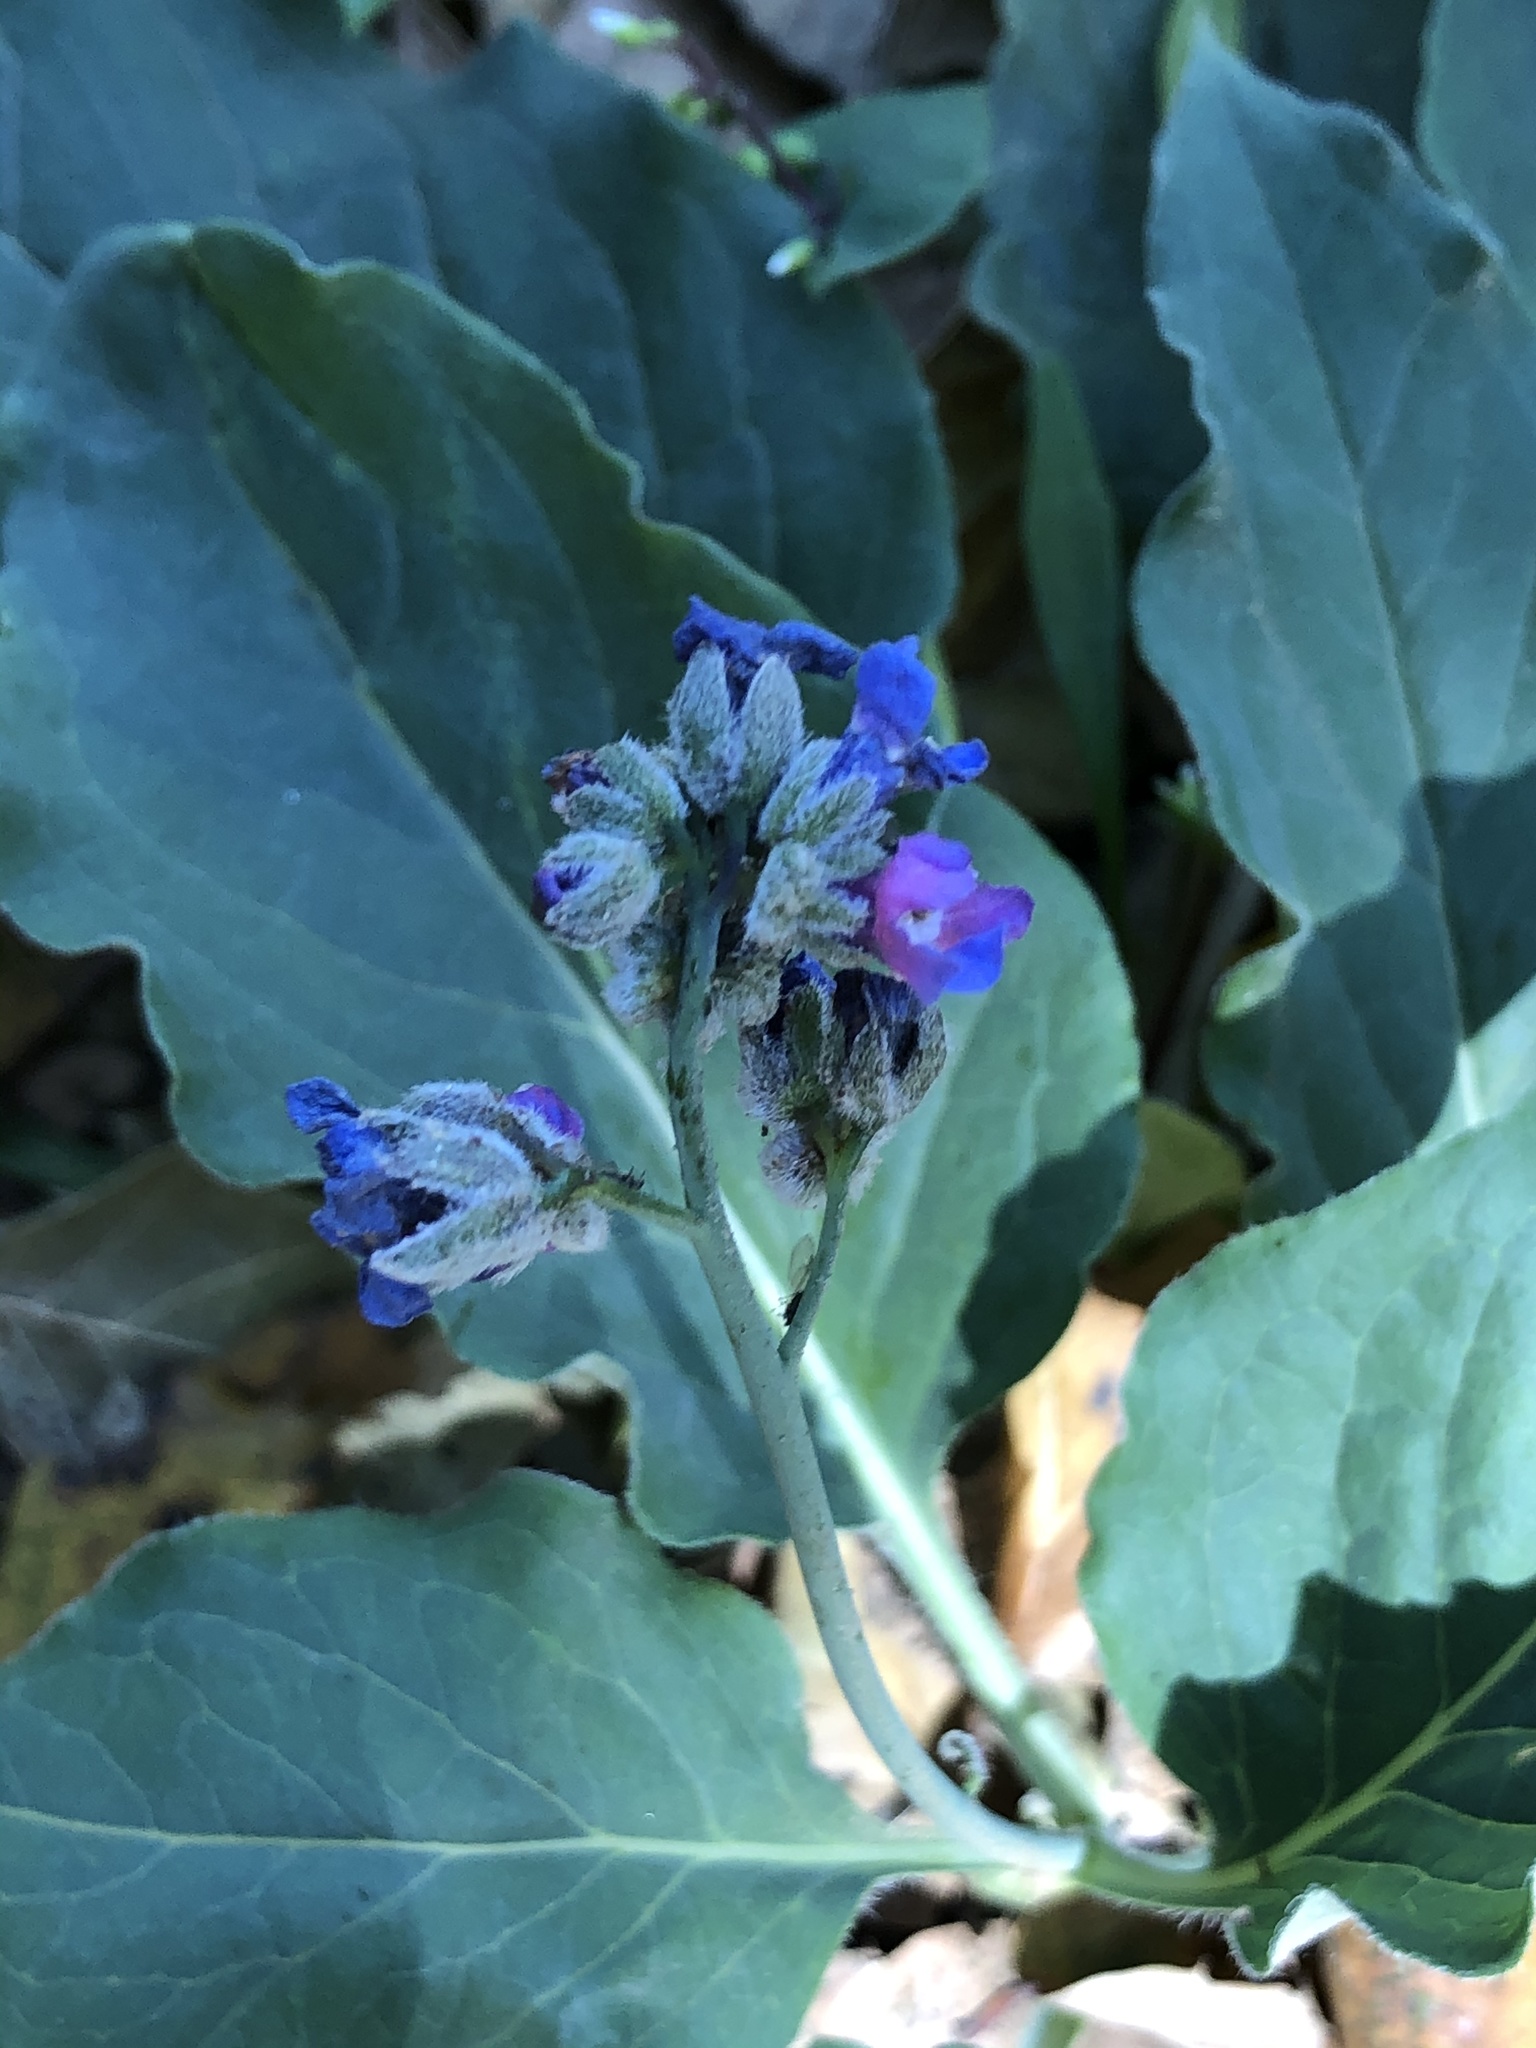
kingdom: Plantae
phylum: Tracheophyta
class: Magnoliopsida
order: Boraginales
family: Boraginaceae
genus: Adelinia
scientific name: Adelinia grande
